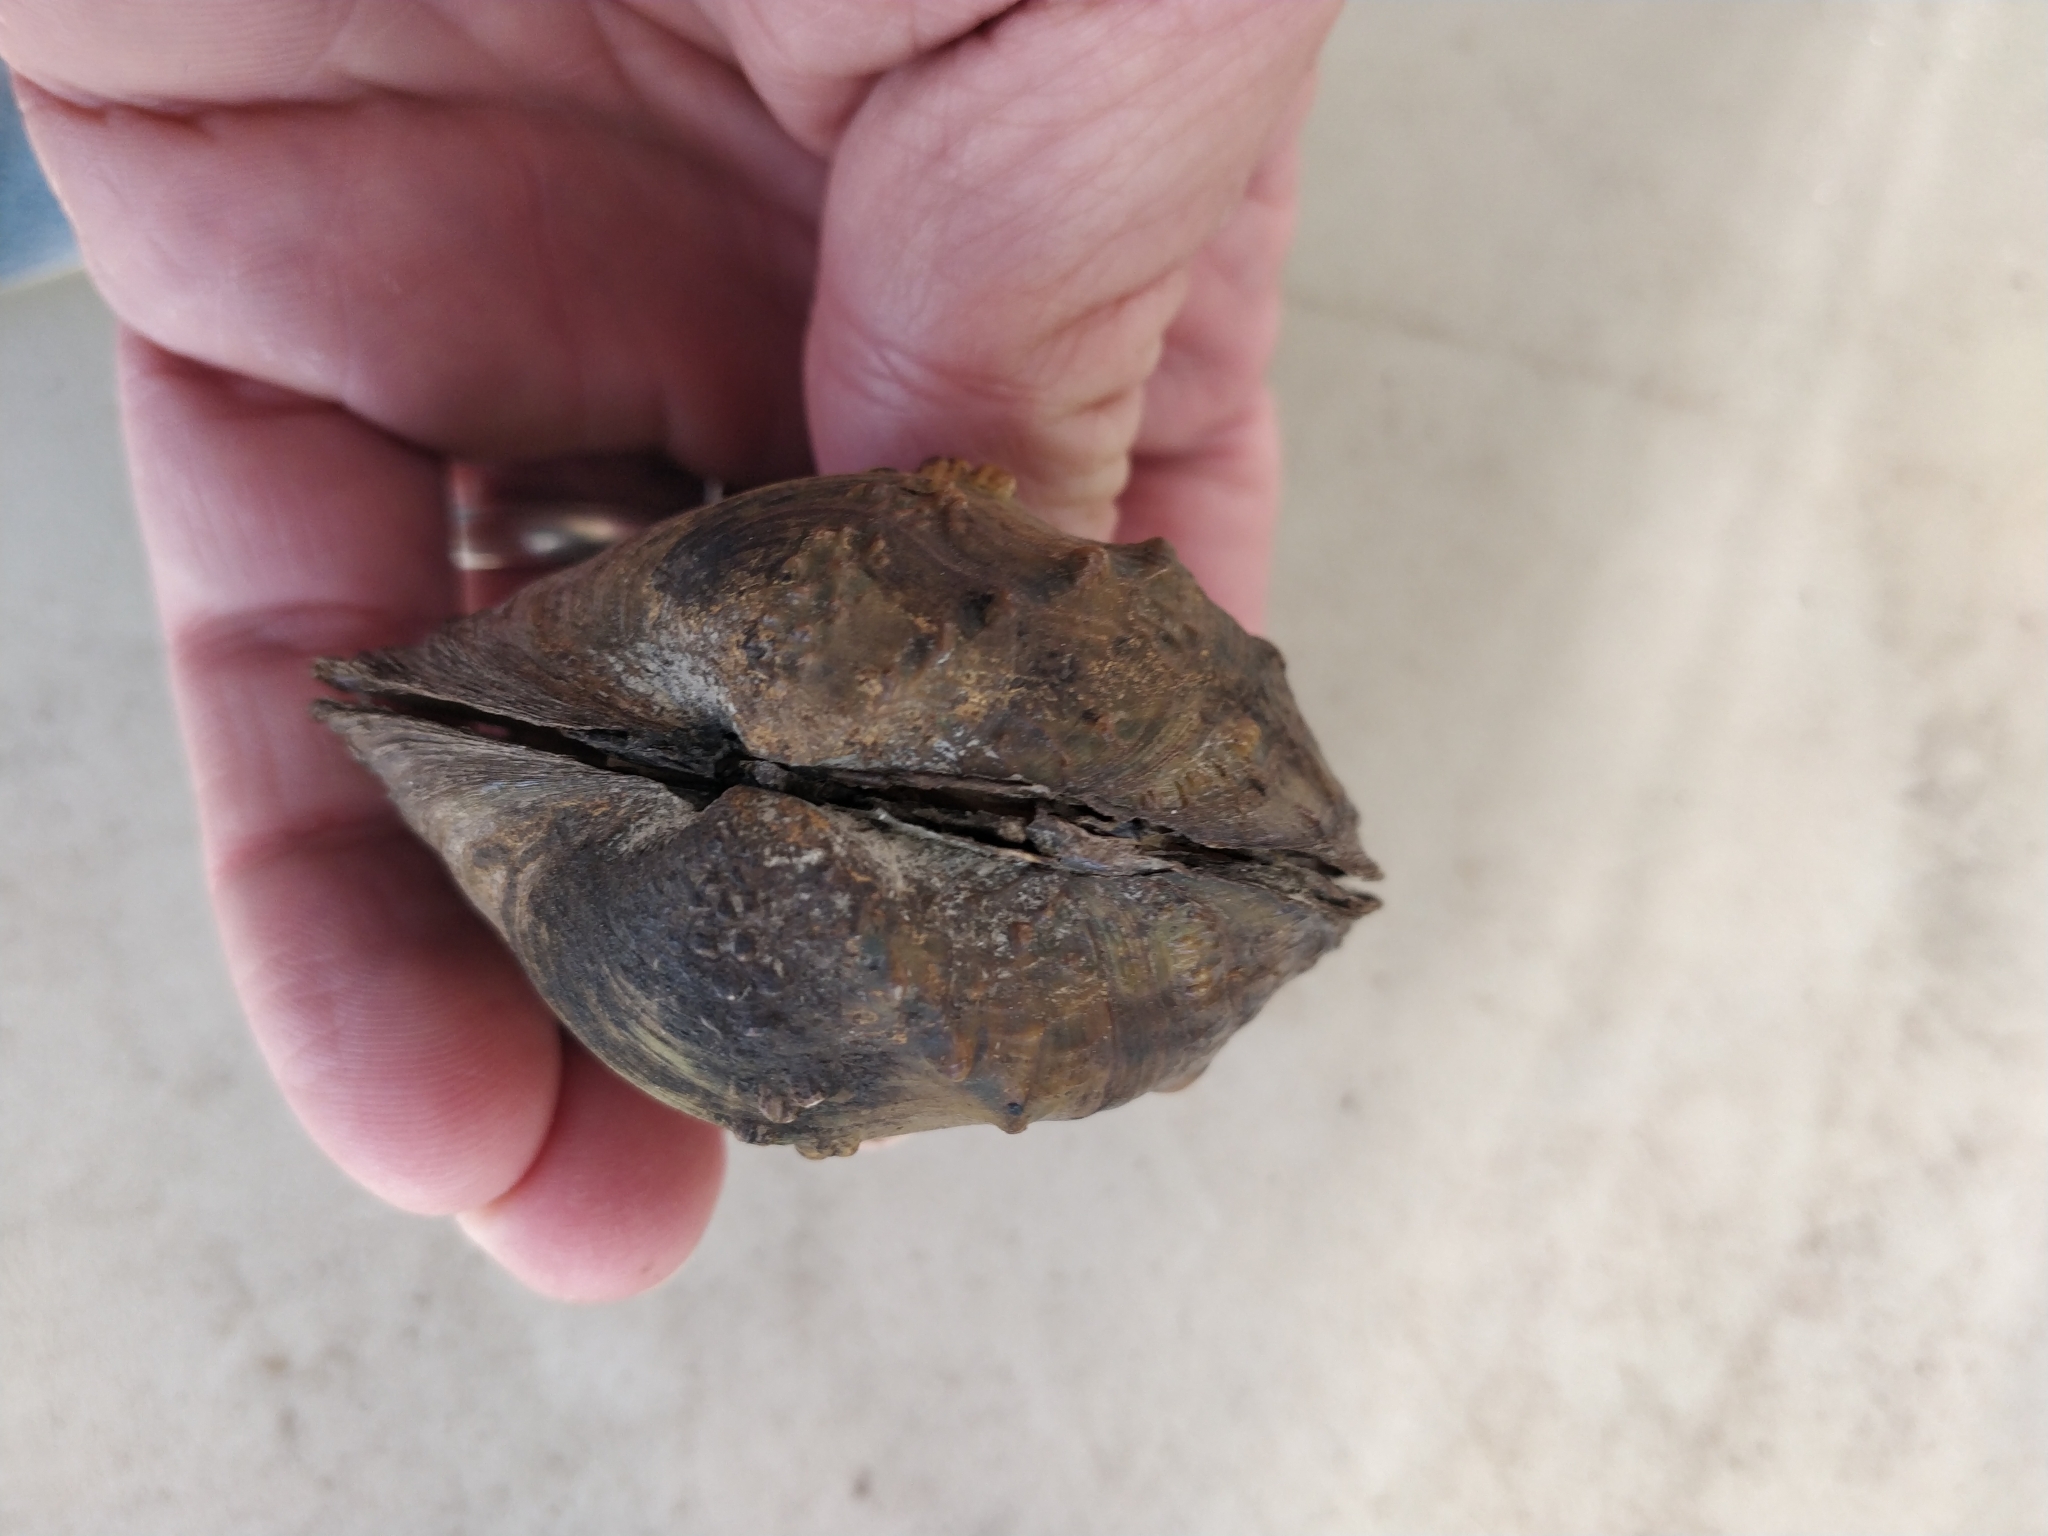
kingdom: Animalia
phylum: Mollusca
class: Bivalvia
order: Unionida
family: Unionidae
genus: Quadrula
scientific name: Quadrula quadrula
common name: Mapleleaf
